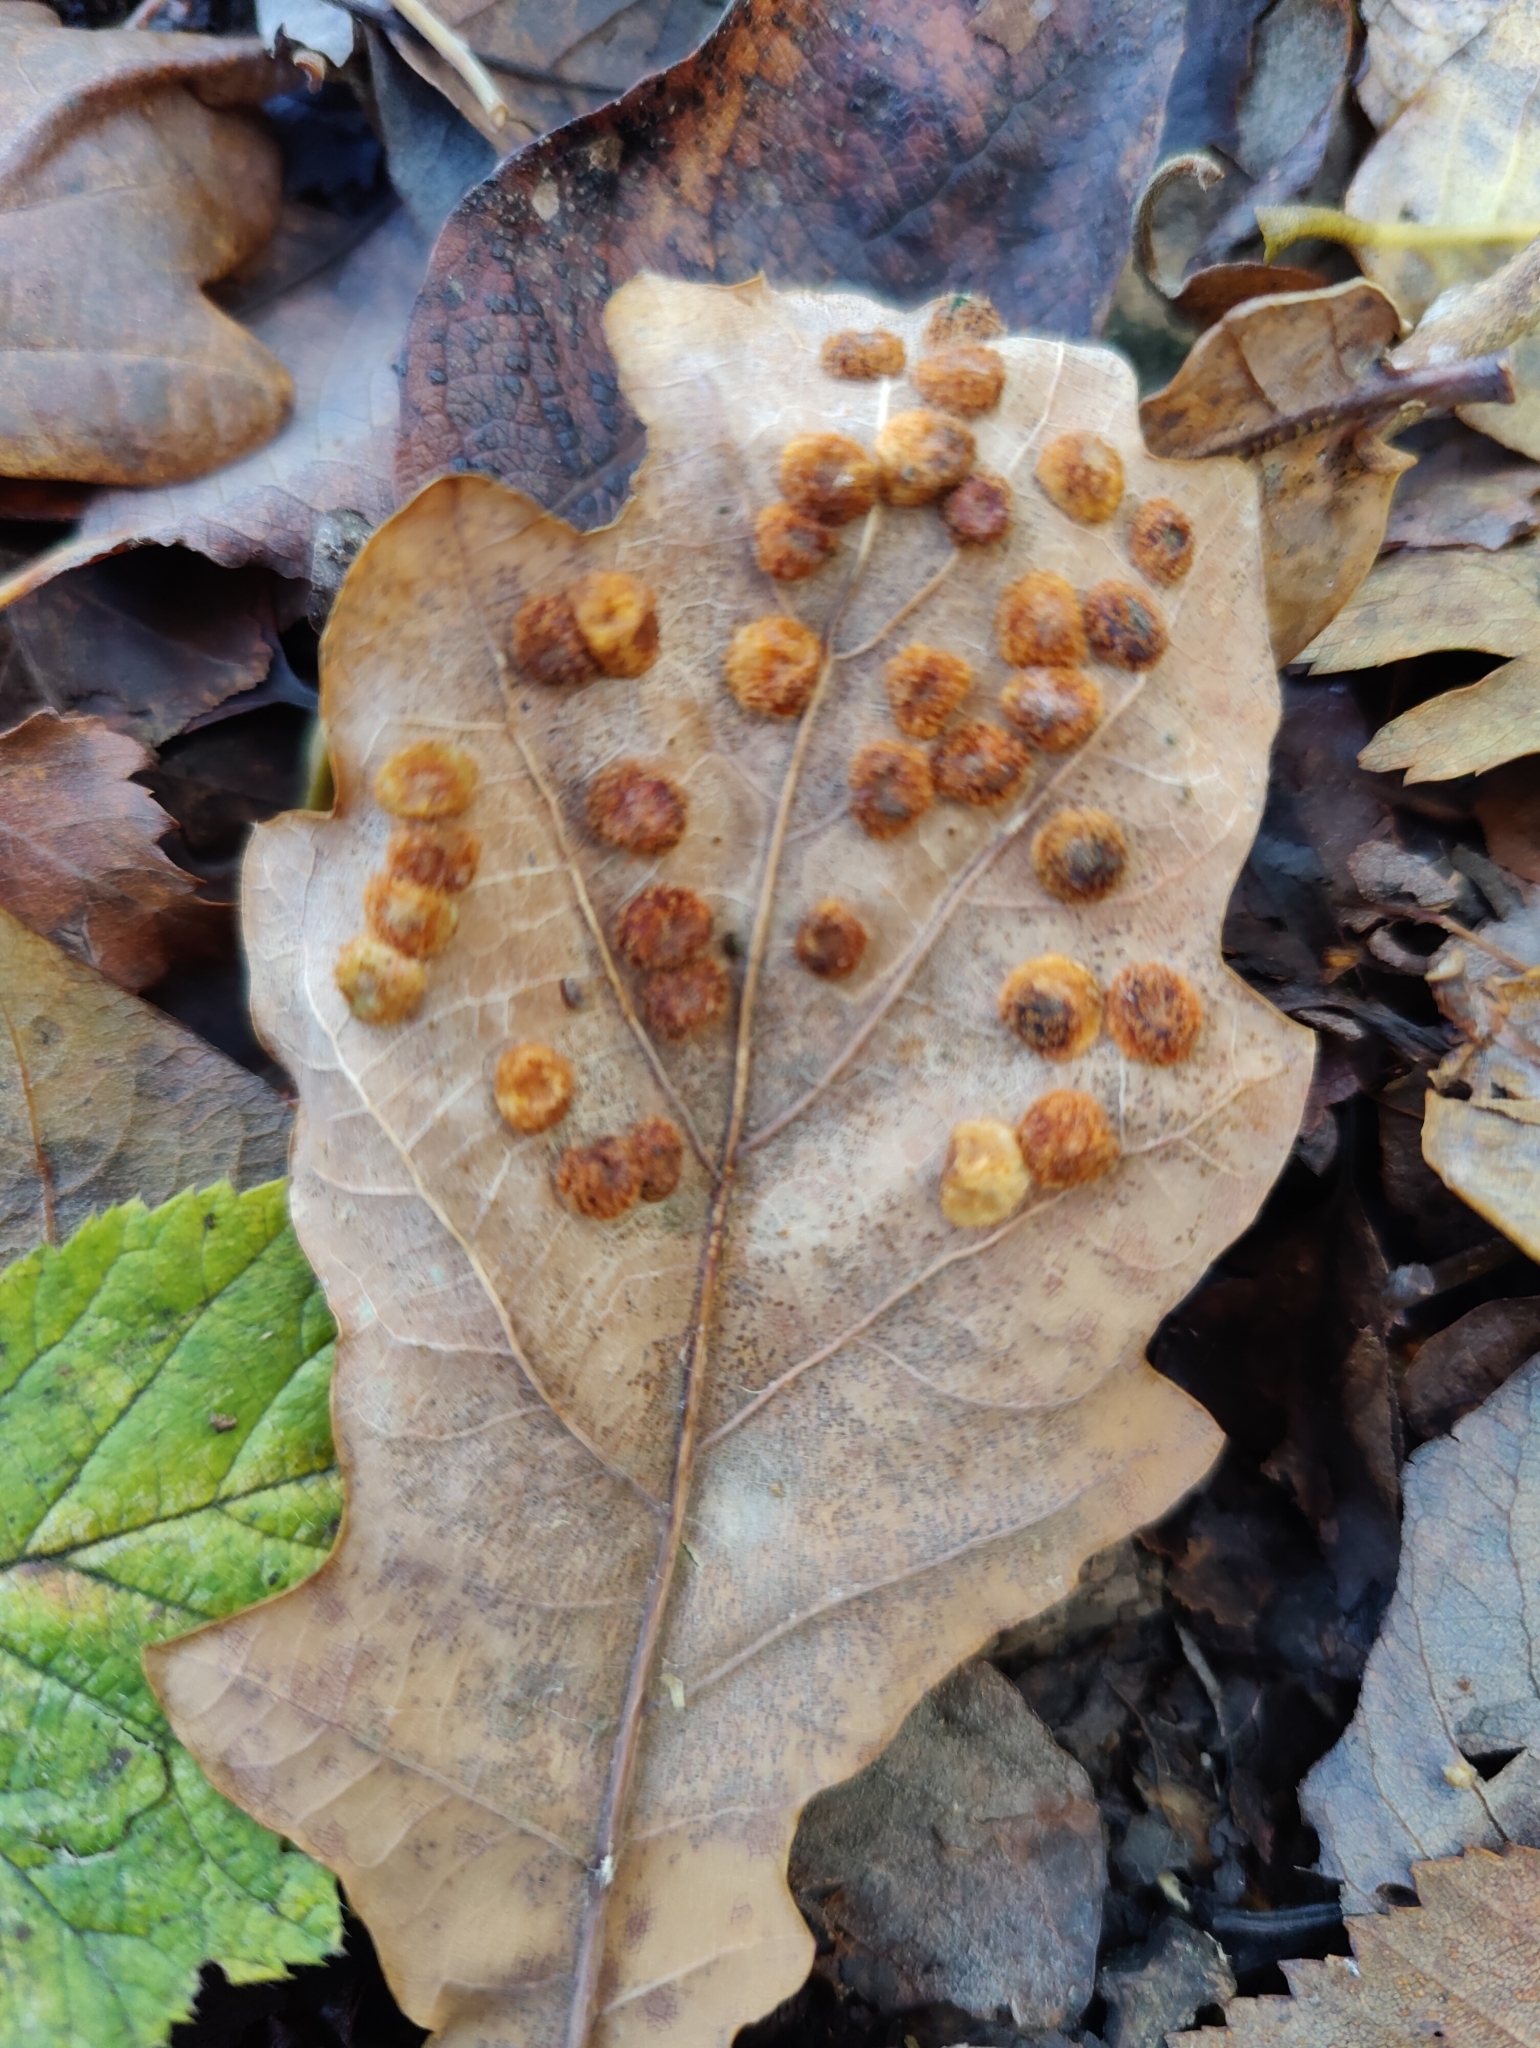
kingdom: Animalia
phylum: Arthropoda
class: Insecta
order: Hymenoptera
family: Cynipidae
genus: Neuroterus
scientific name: Neuroterus quercusbaccarum
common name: Common spangle gall
